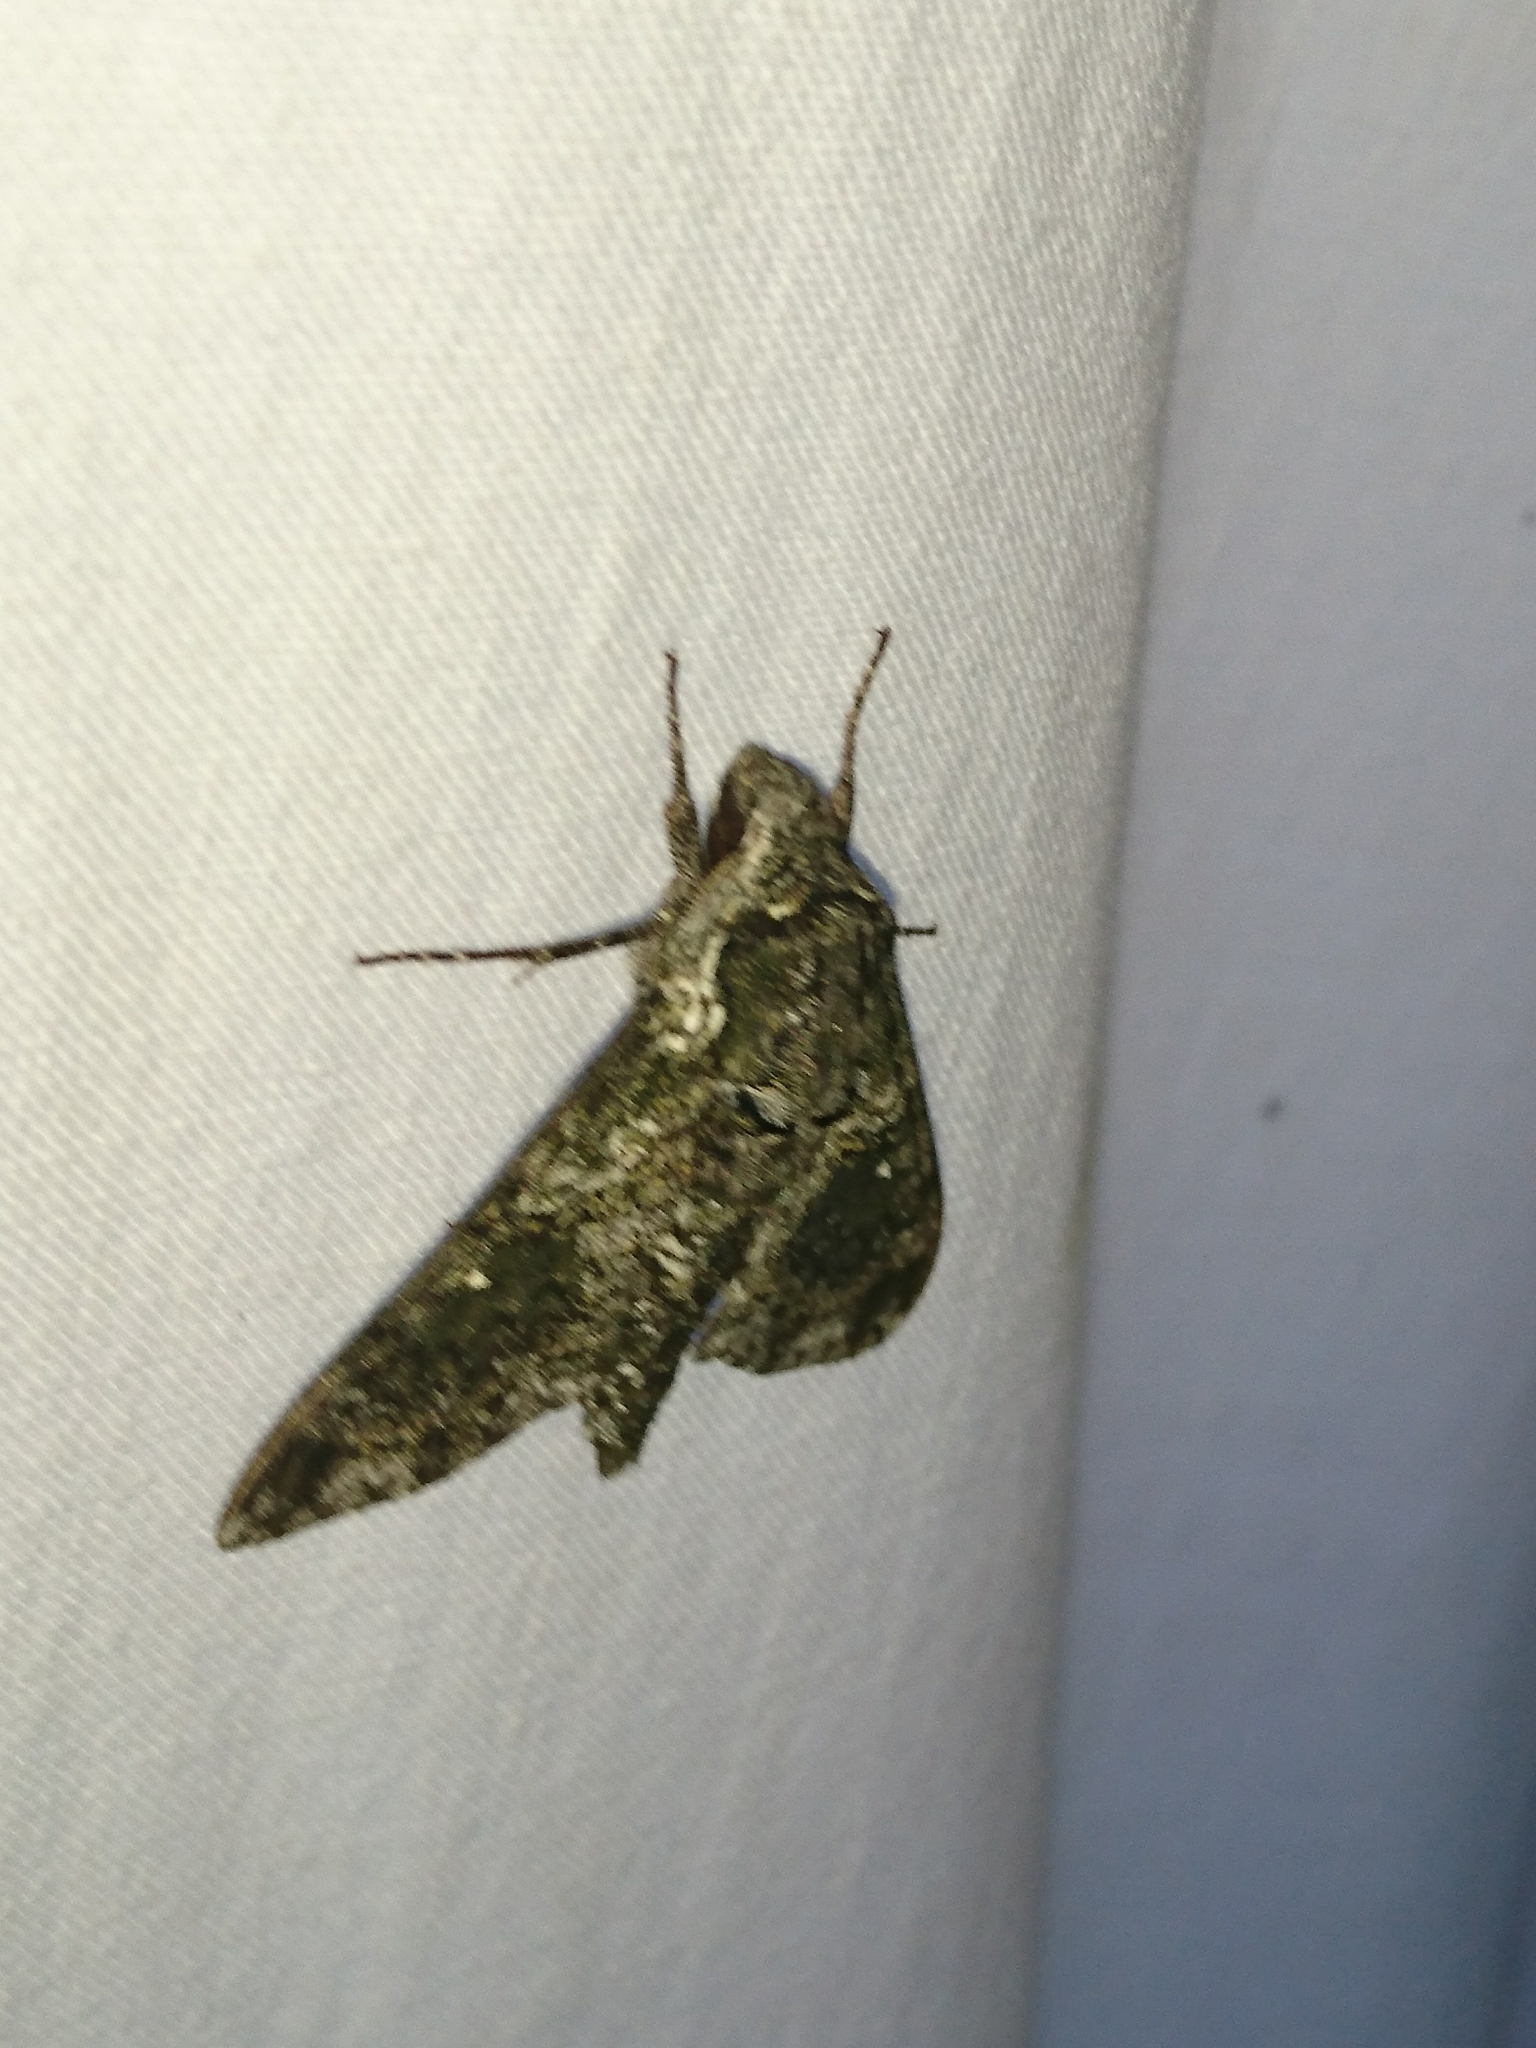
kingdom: Animalia
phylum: Arthropoda
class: Insecta
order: Lepidoptera
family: Sphingidae
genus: Dolba
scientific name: Dolba hyloeus
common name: Pawpaw sphinx
